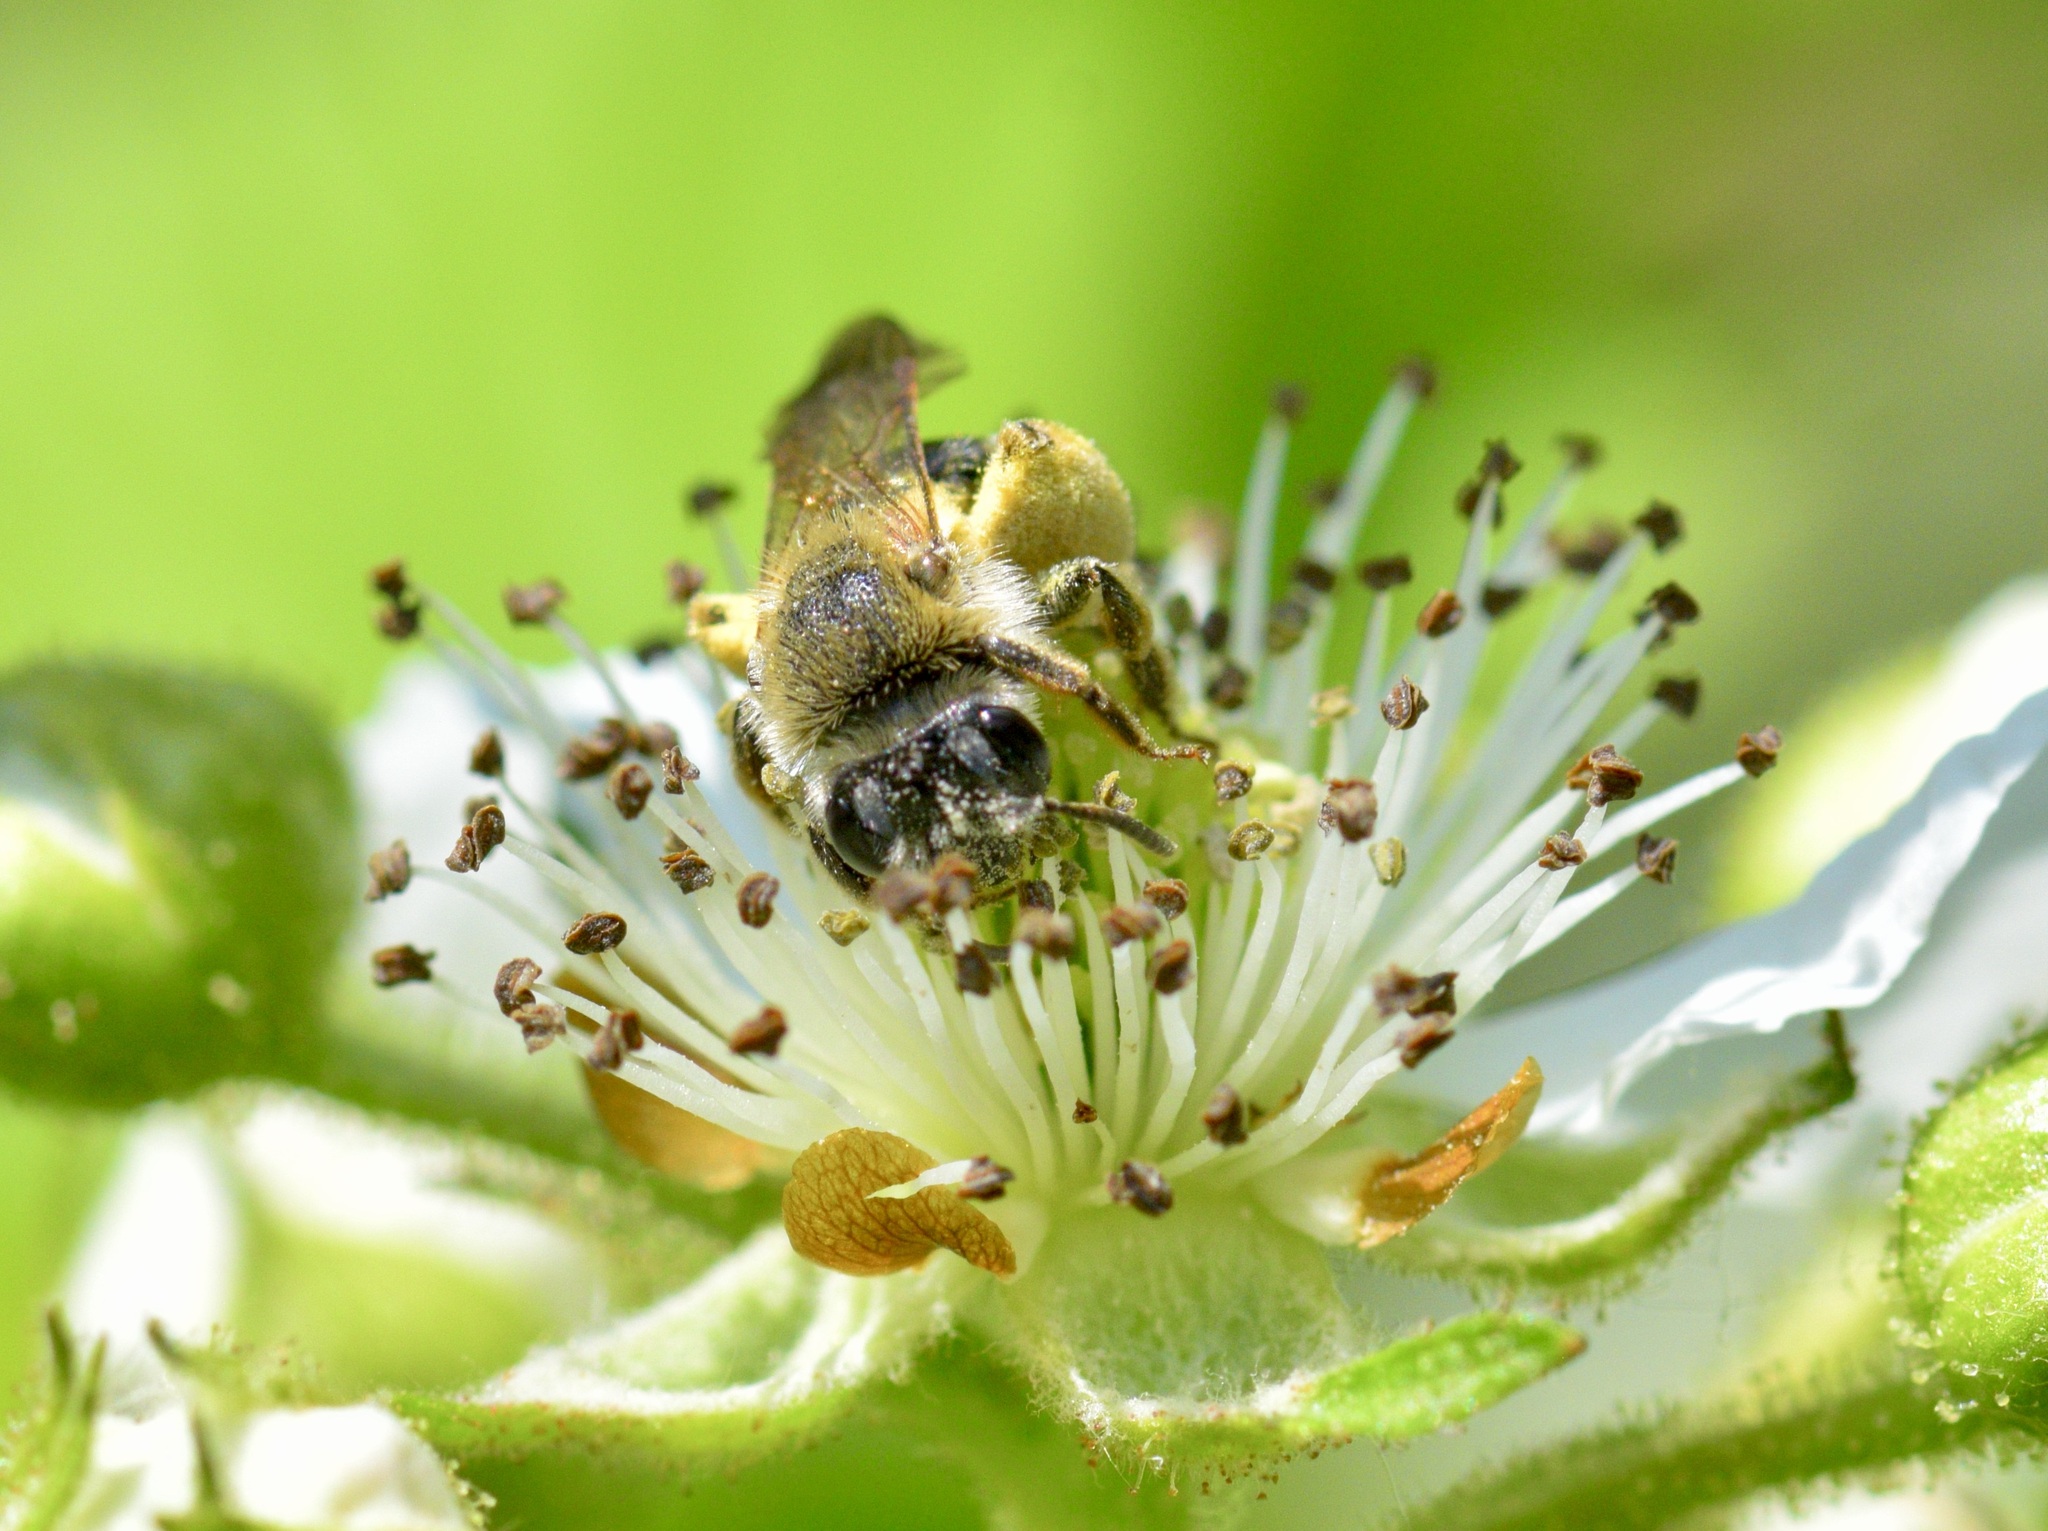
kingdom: Animalia
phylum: Arthropoda
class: Insecta
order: Hymenoptera
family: Andrenidae
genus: Andrena
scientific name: Andrena rugosa
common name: Rugose mining bee
